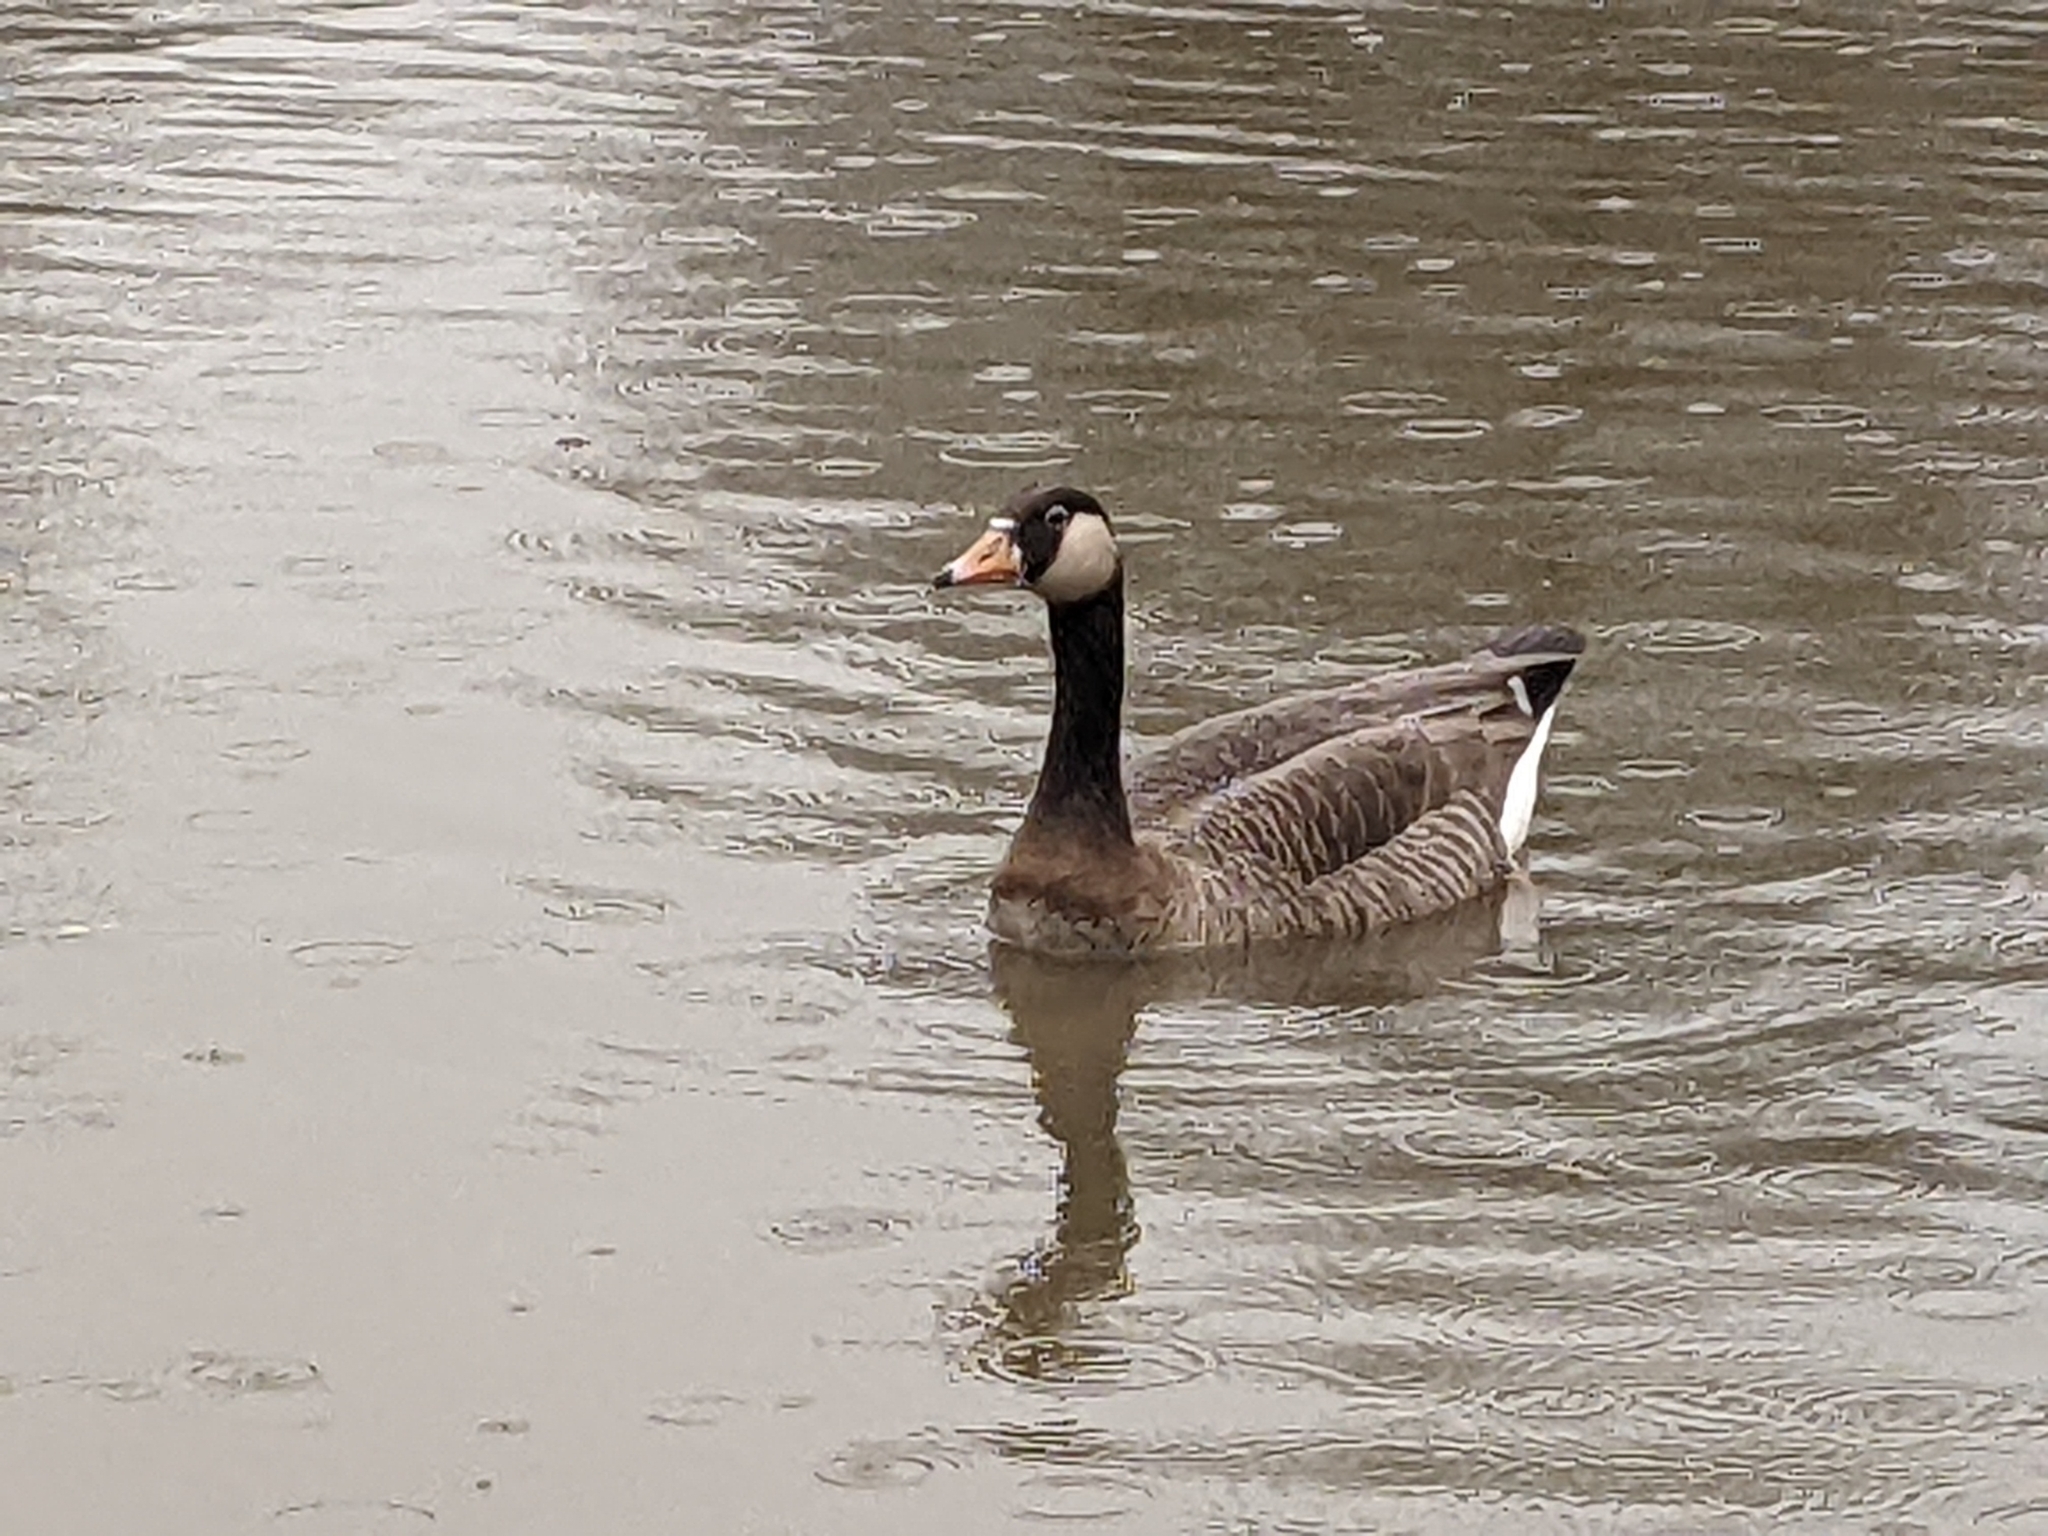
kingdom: Animalia
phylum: Chordata
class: Aves
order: Anseriformes
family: Anatidae
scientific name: Anatidae
